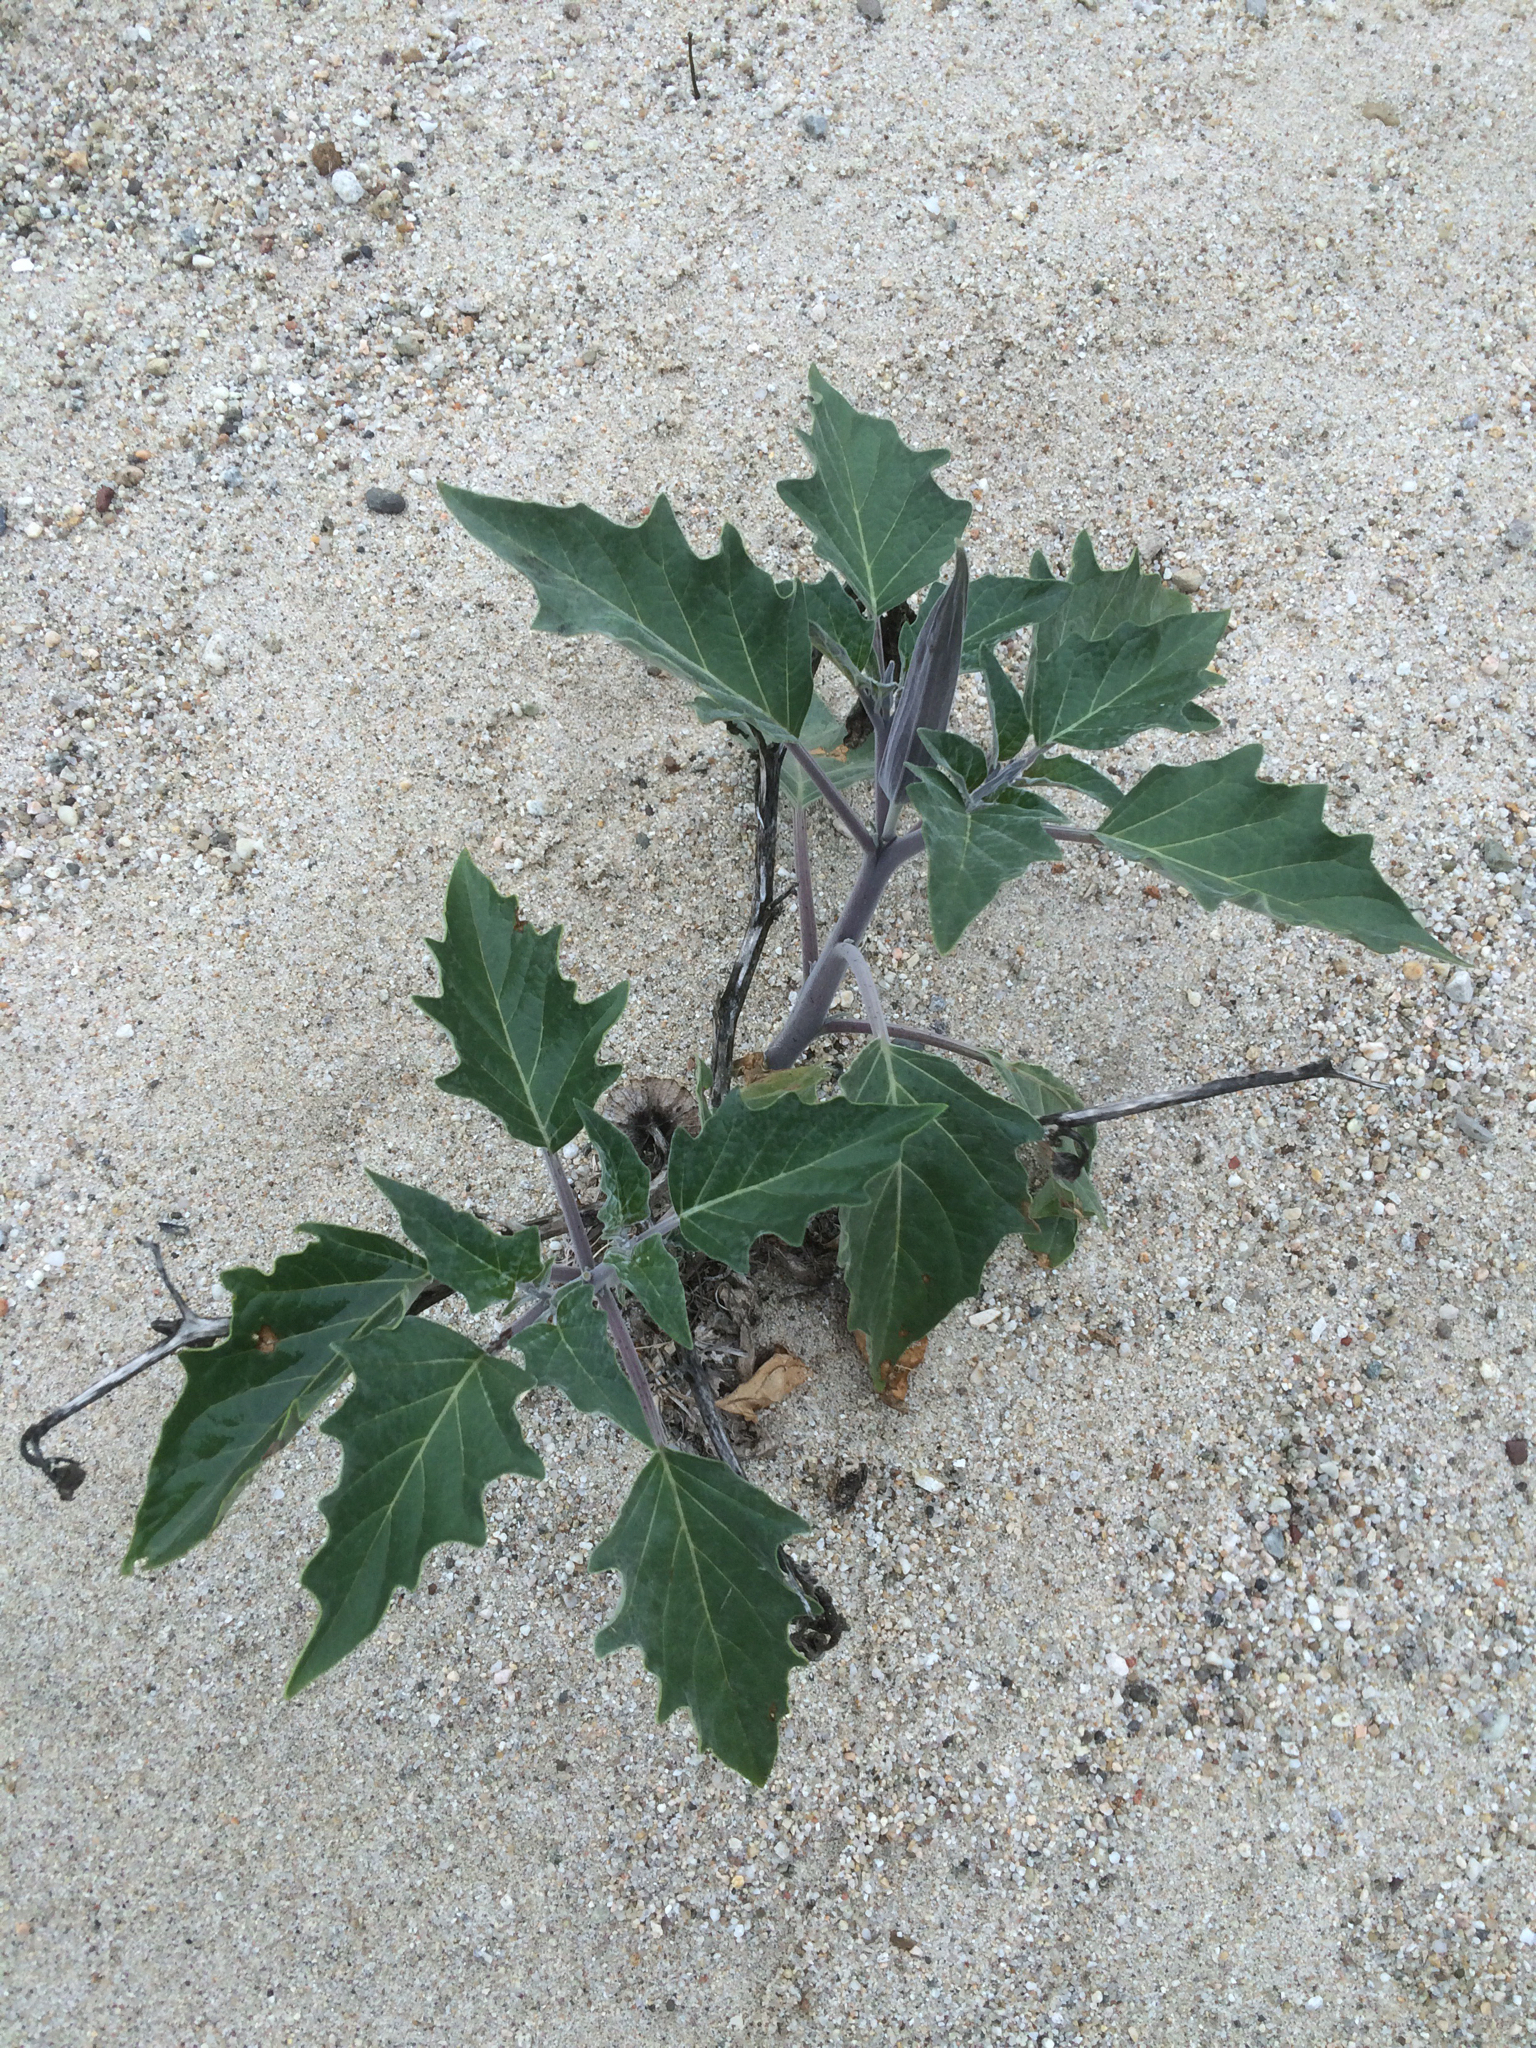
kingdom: Plantae
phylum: Tracheophyta
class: Magnoliopsida
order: Solanales
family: Solanaceae
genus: Datura
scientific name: Datura wrightii
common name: Sacred thorn-apple
